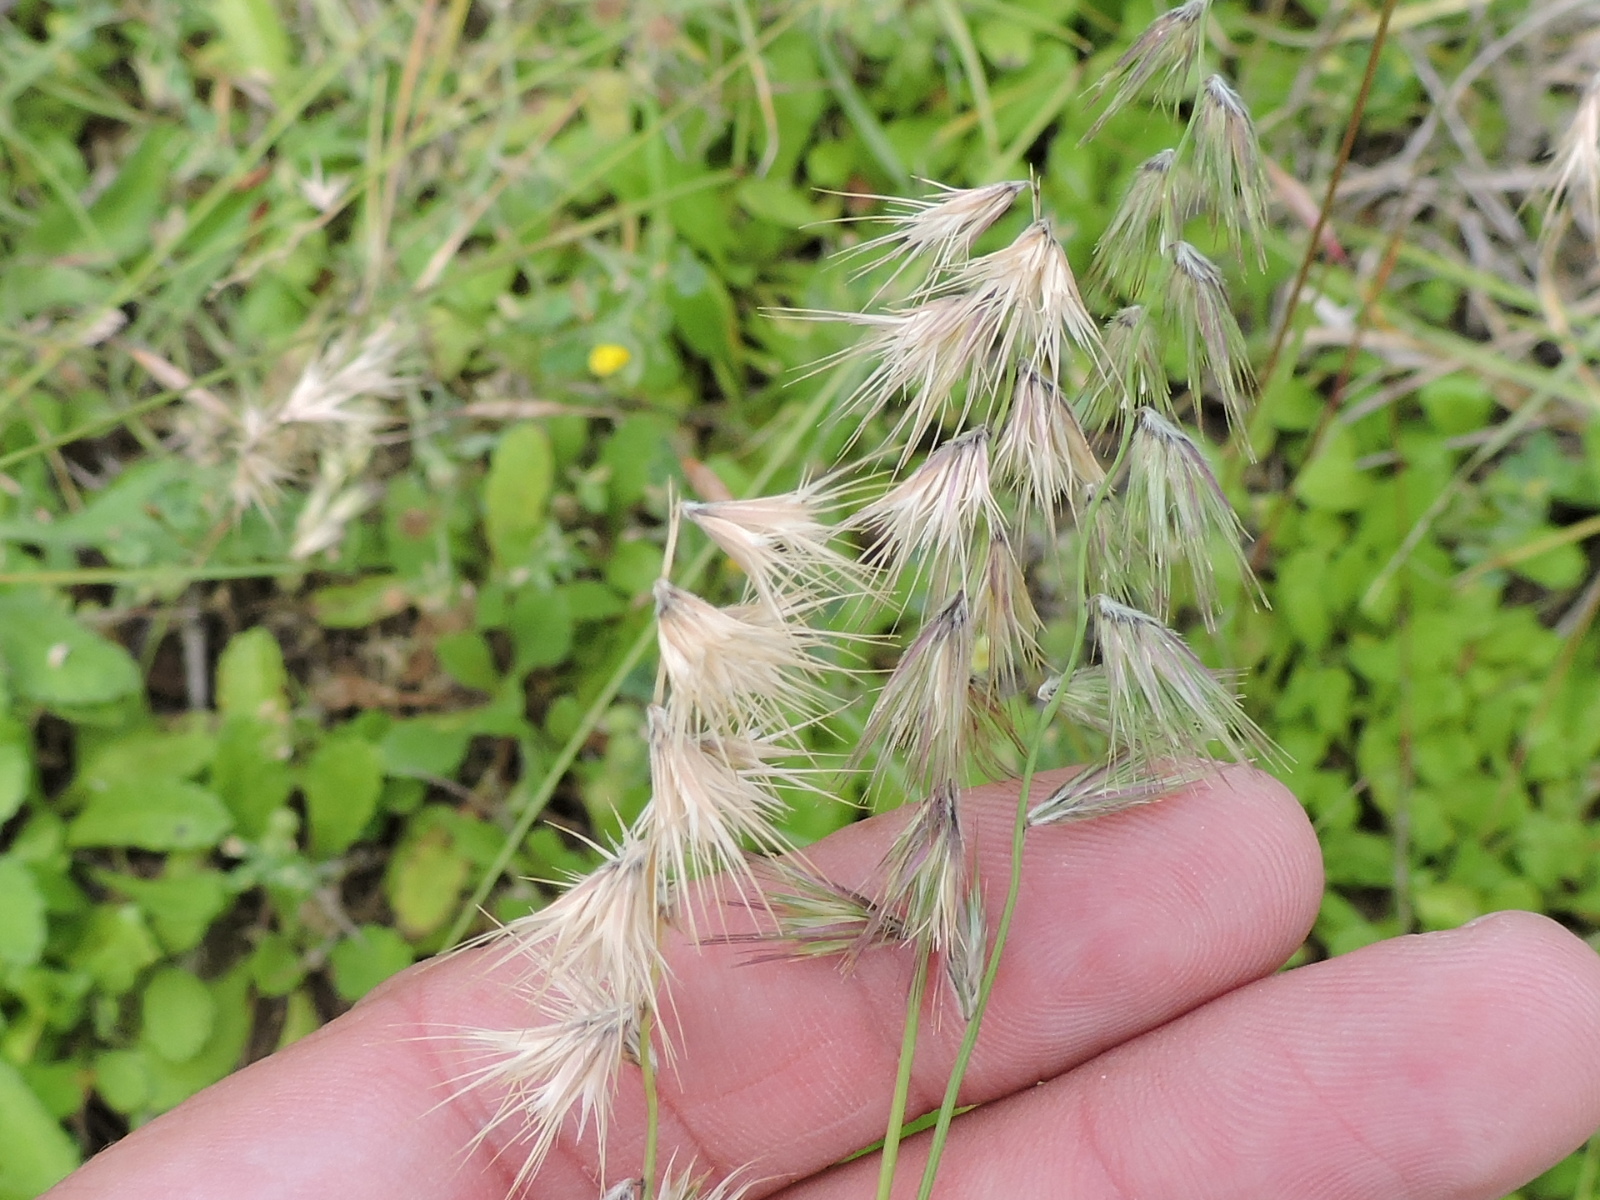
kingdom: Plantae
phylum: Tracheophyta
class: Liliopsida
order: Poales
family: Poaceae
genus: Bouteloua
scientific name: Bouteloua rigidiseta
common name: Texas grama
